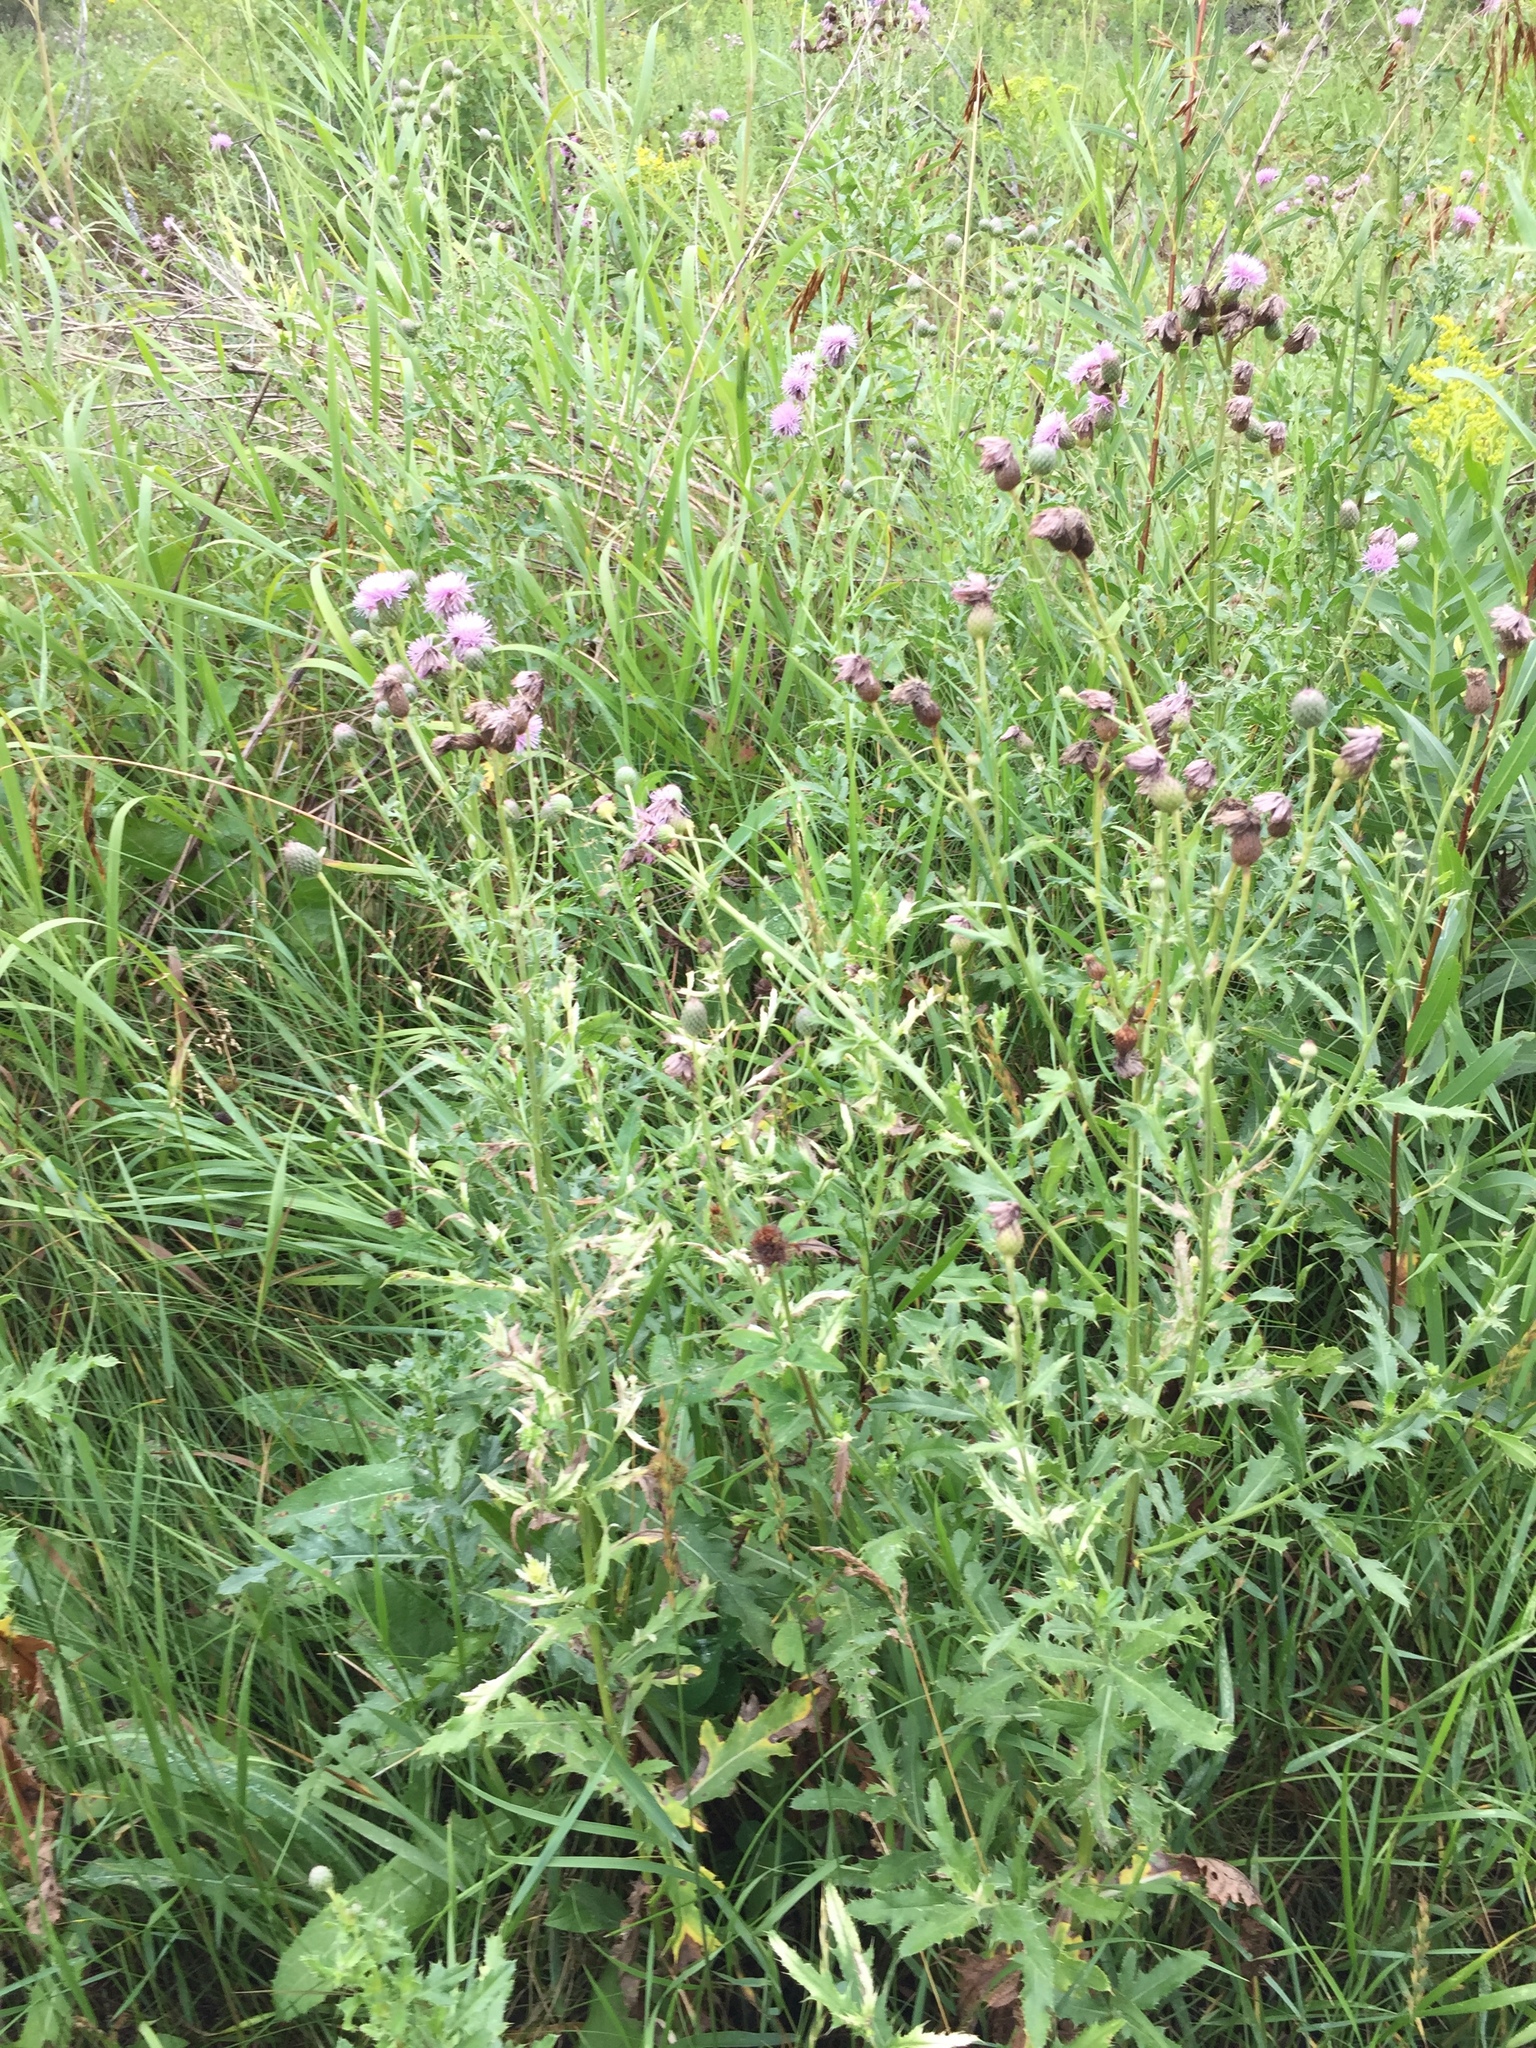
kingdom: Plantae
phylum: Tracheophyta
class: Magnoliopsida
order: Asterales
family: Asteraceae
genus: Cirsium
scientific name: Cirsium arvense
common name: Creeping thistle
